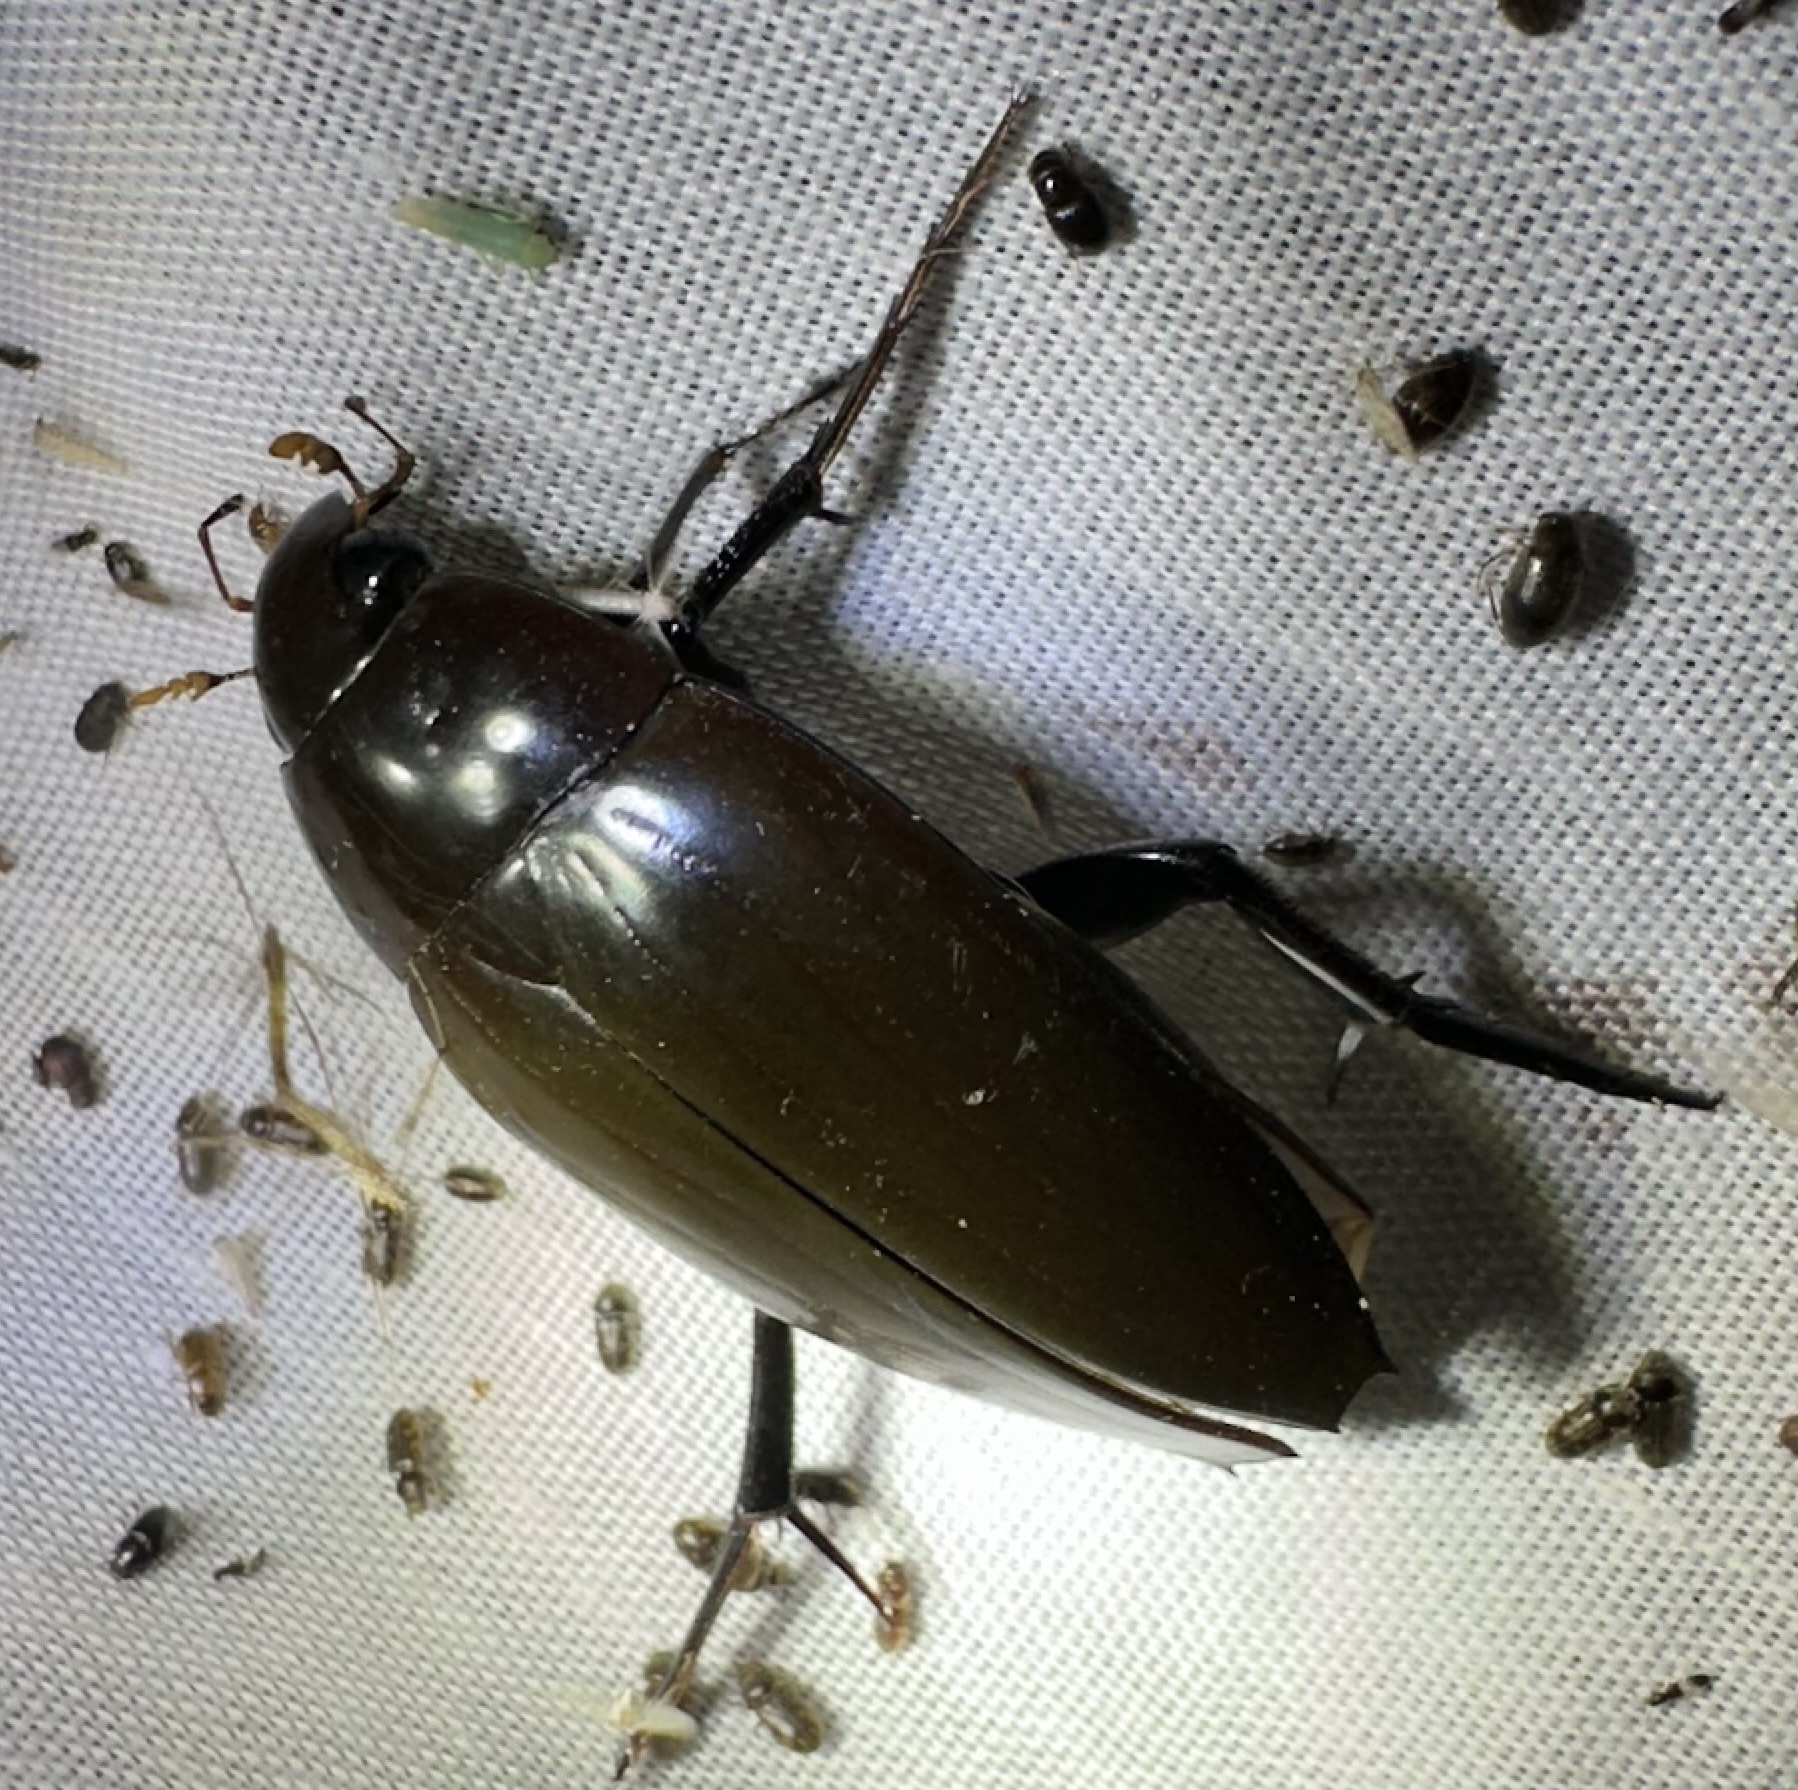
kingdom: Animalia
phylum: Arthropoda
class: Insecta
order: Coleoptera
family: Hydrophilidae
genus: Hydrophilus
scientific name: Hydrophilus aculeatus
